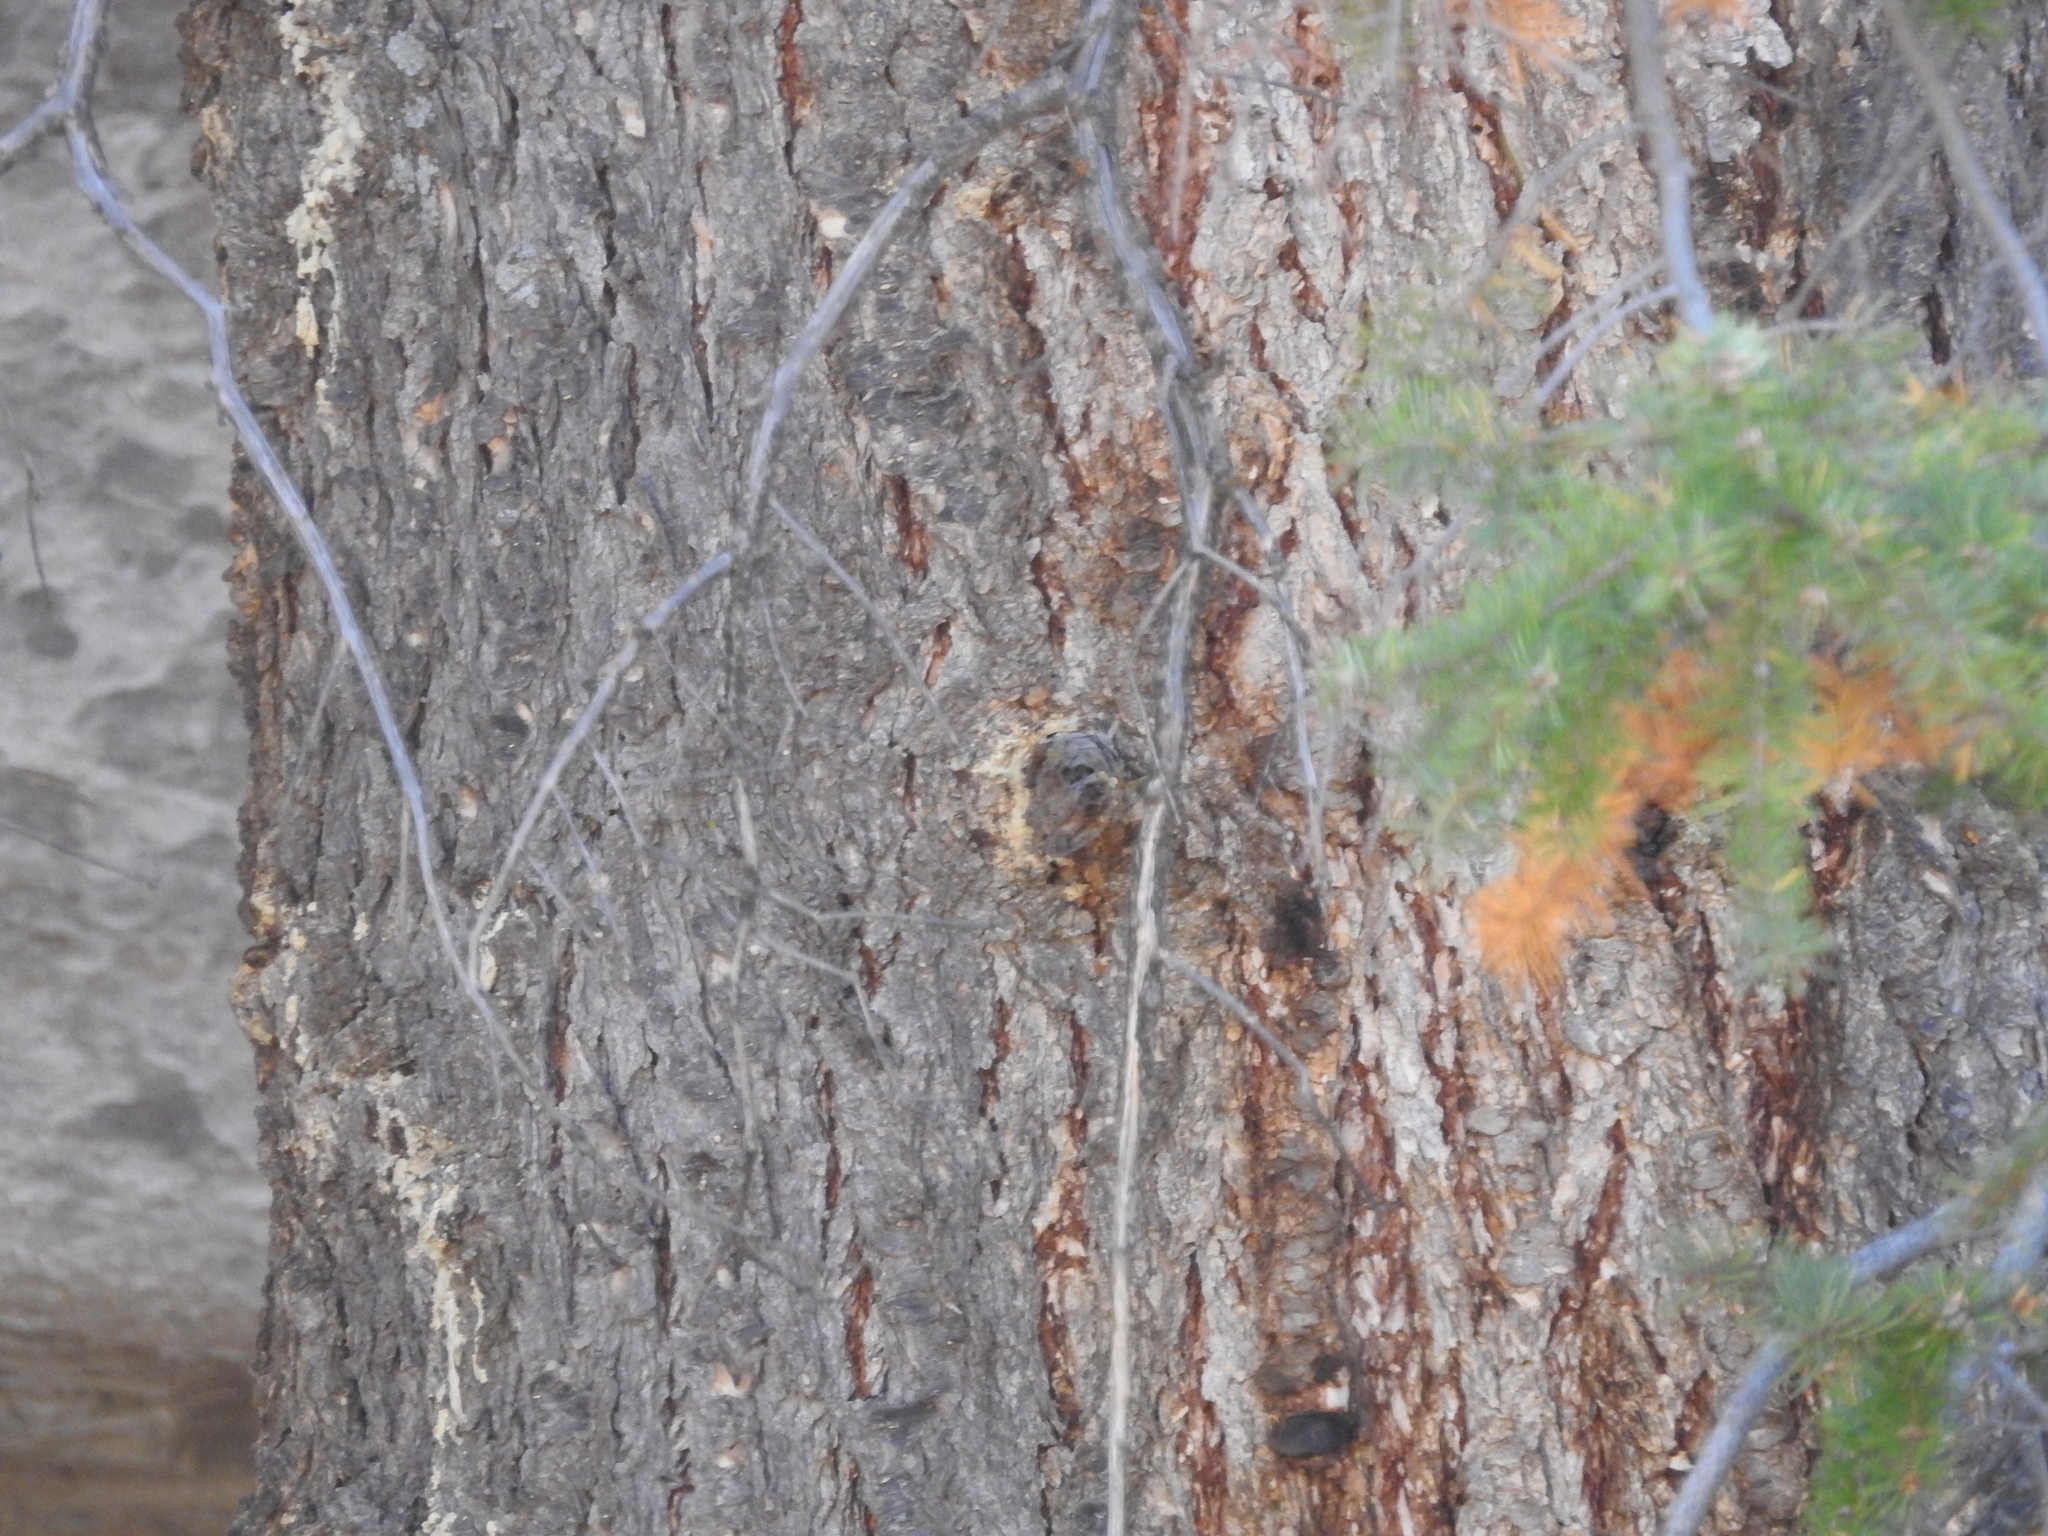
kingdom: Plantae
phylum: Tracheophyta
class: Pinopsida
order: Pinales
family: Pinaceae
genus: Pseudotsuga
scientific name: Pseudotsuga menziesii
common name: Douglas fir
